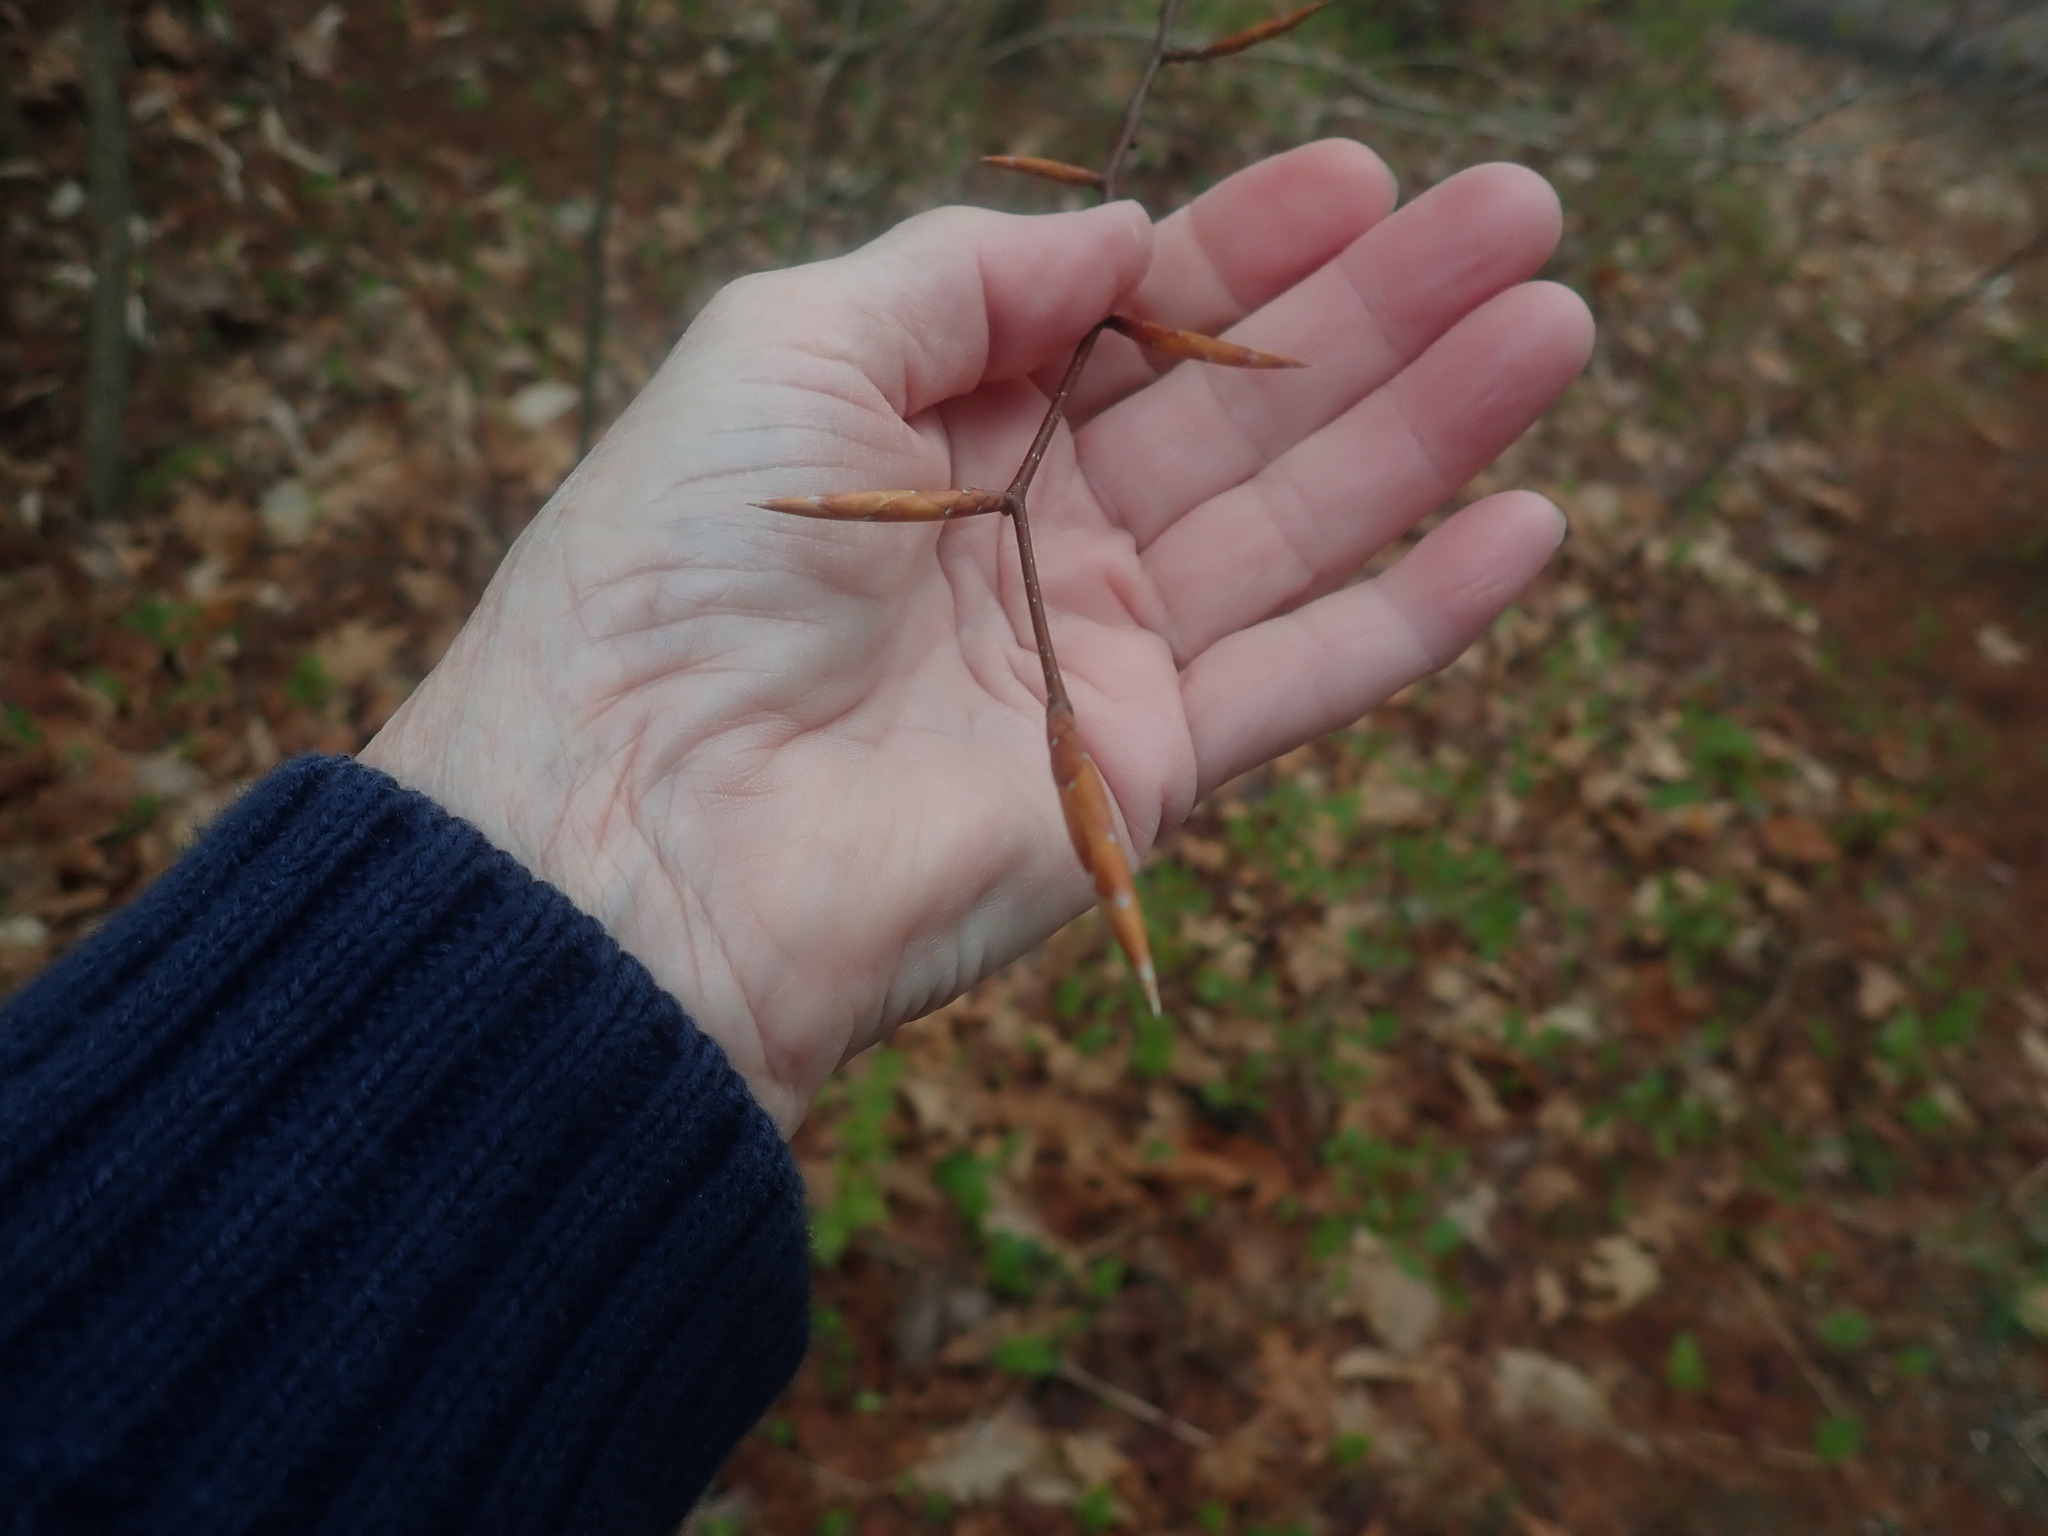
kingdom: Plantae
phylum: Tracheophyta
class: Magnoliopsida
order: Fagales
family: Fagaceae
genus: Fagus
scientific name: Fagus grandifolia
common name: American beech
